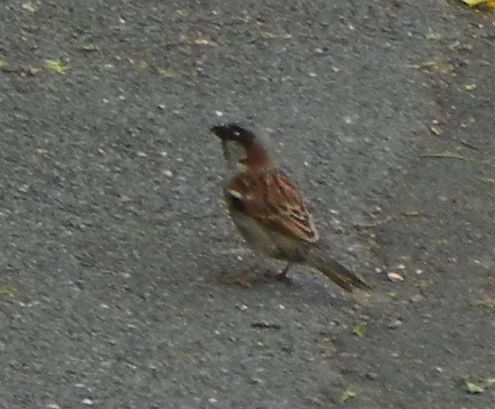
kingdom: Animalia
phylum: Chordata
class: Aves
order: Passeriformes
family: Passeridae
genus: Passer
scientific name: Passer domesticus
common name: House sparrow
